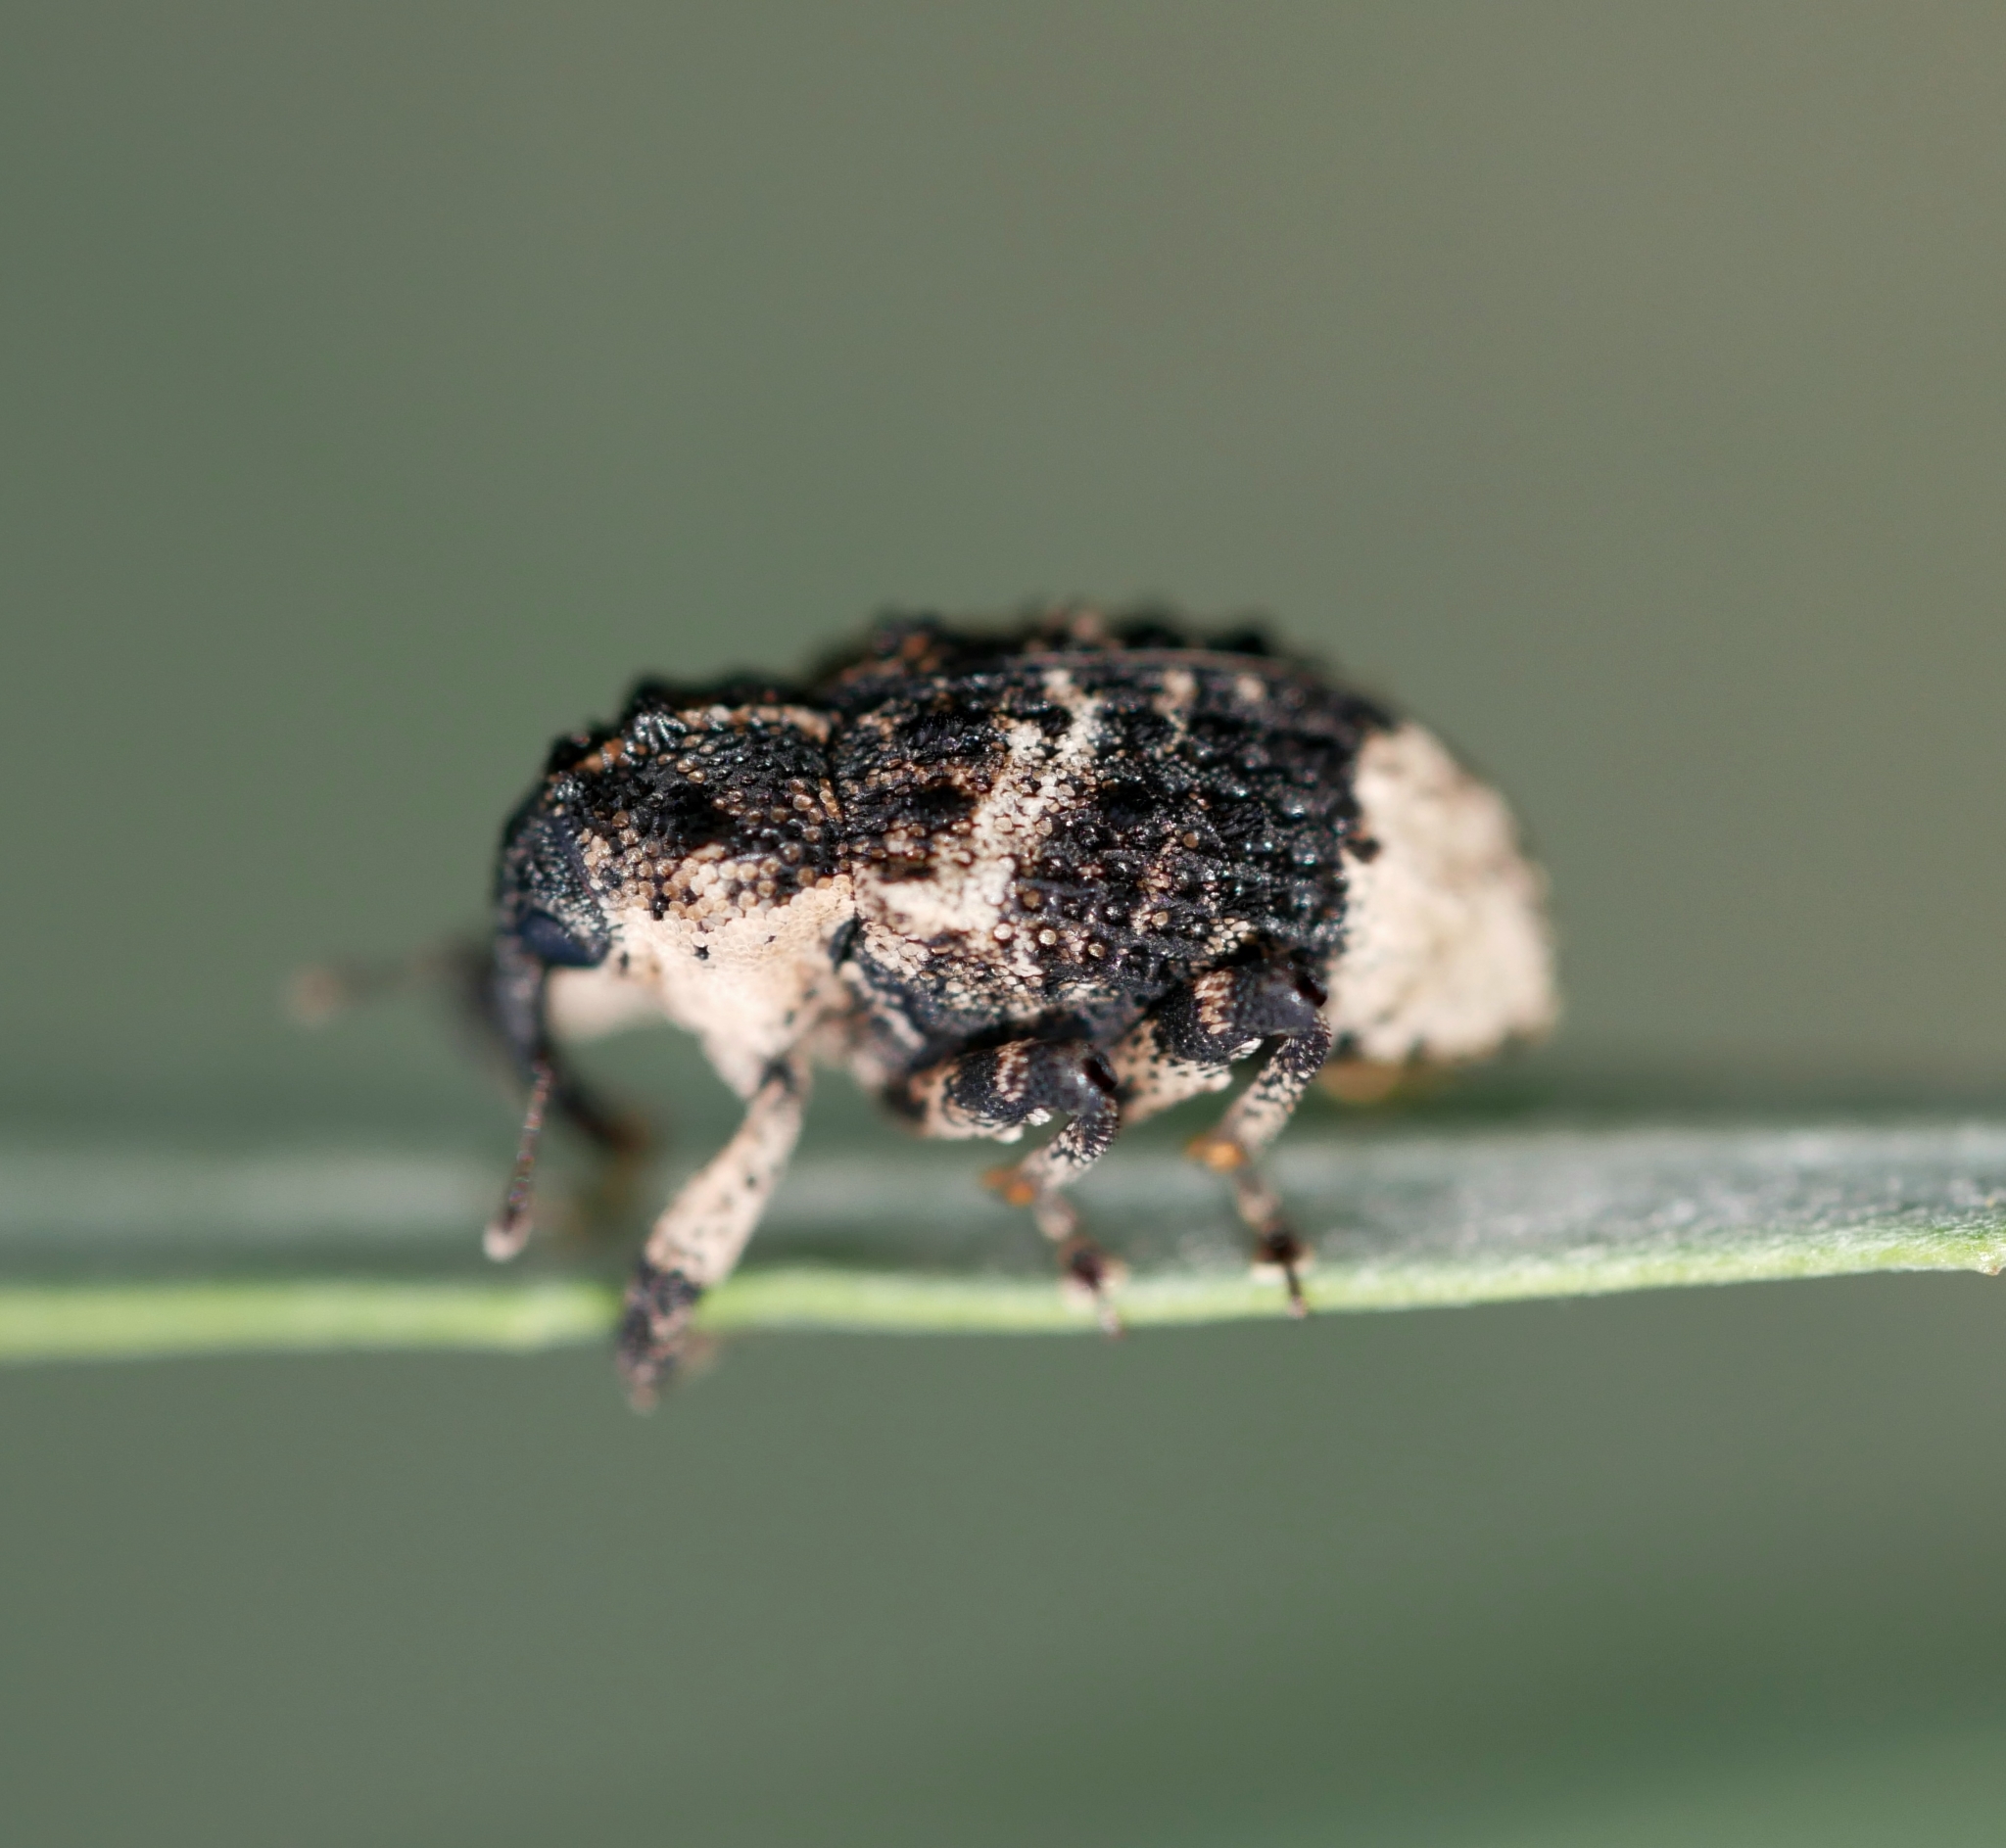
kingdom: Animalia
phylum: Arthropoda
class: Insecta
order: Coleoptera
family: Curculionidae
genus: Cryptorhynchus
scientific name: Cryptorhynchus lapathi
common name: Weevil
